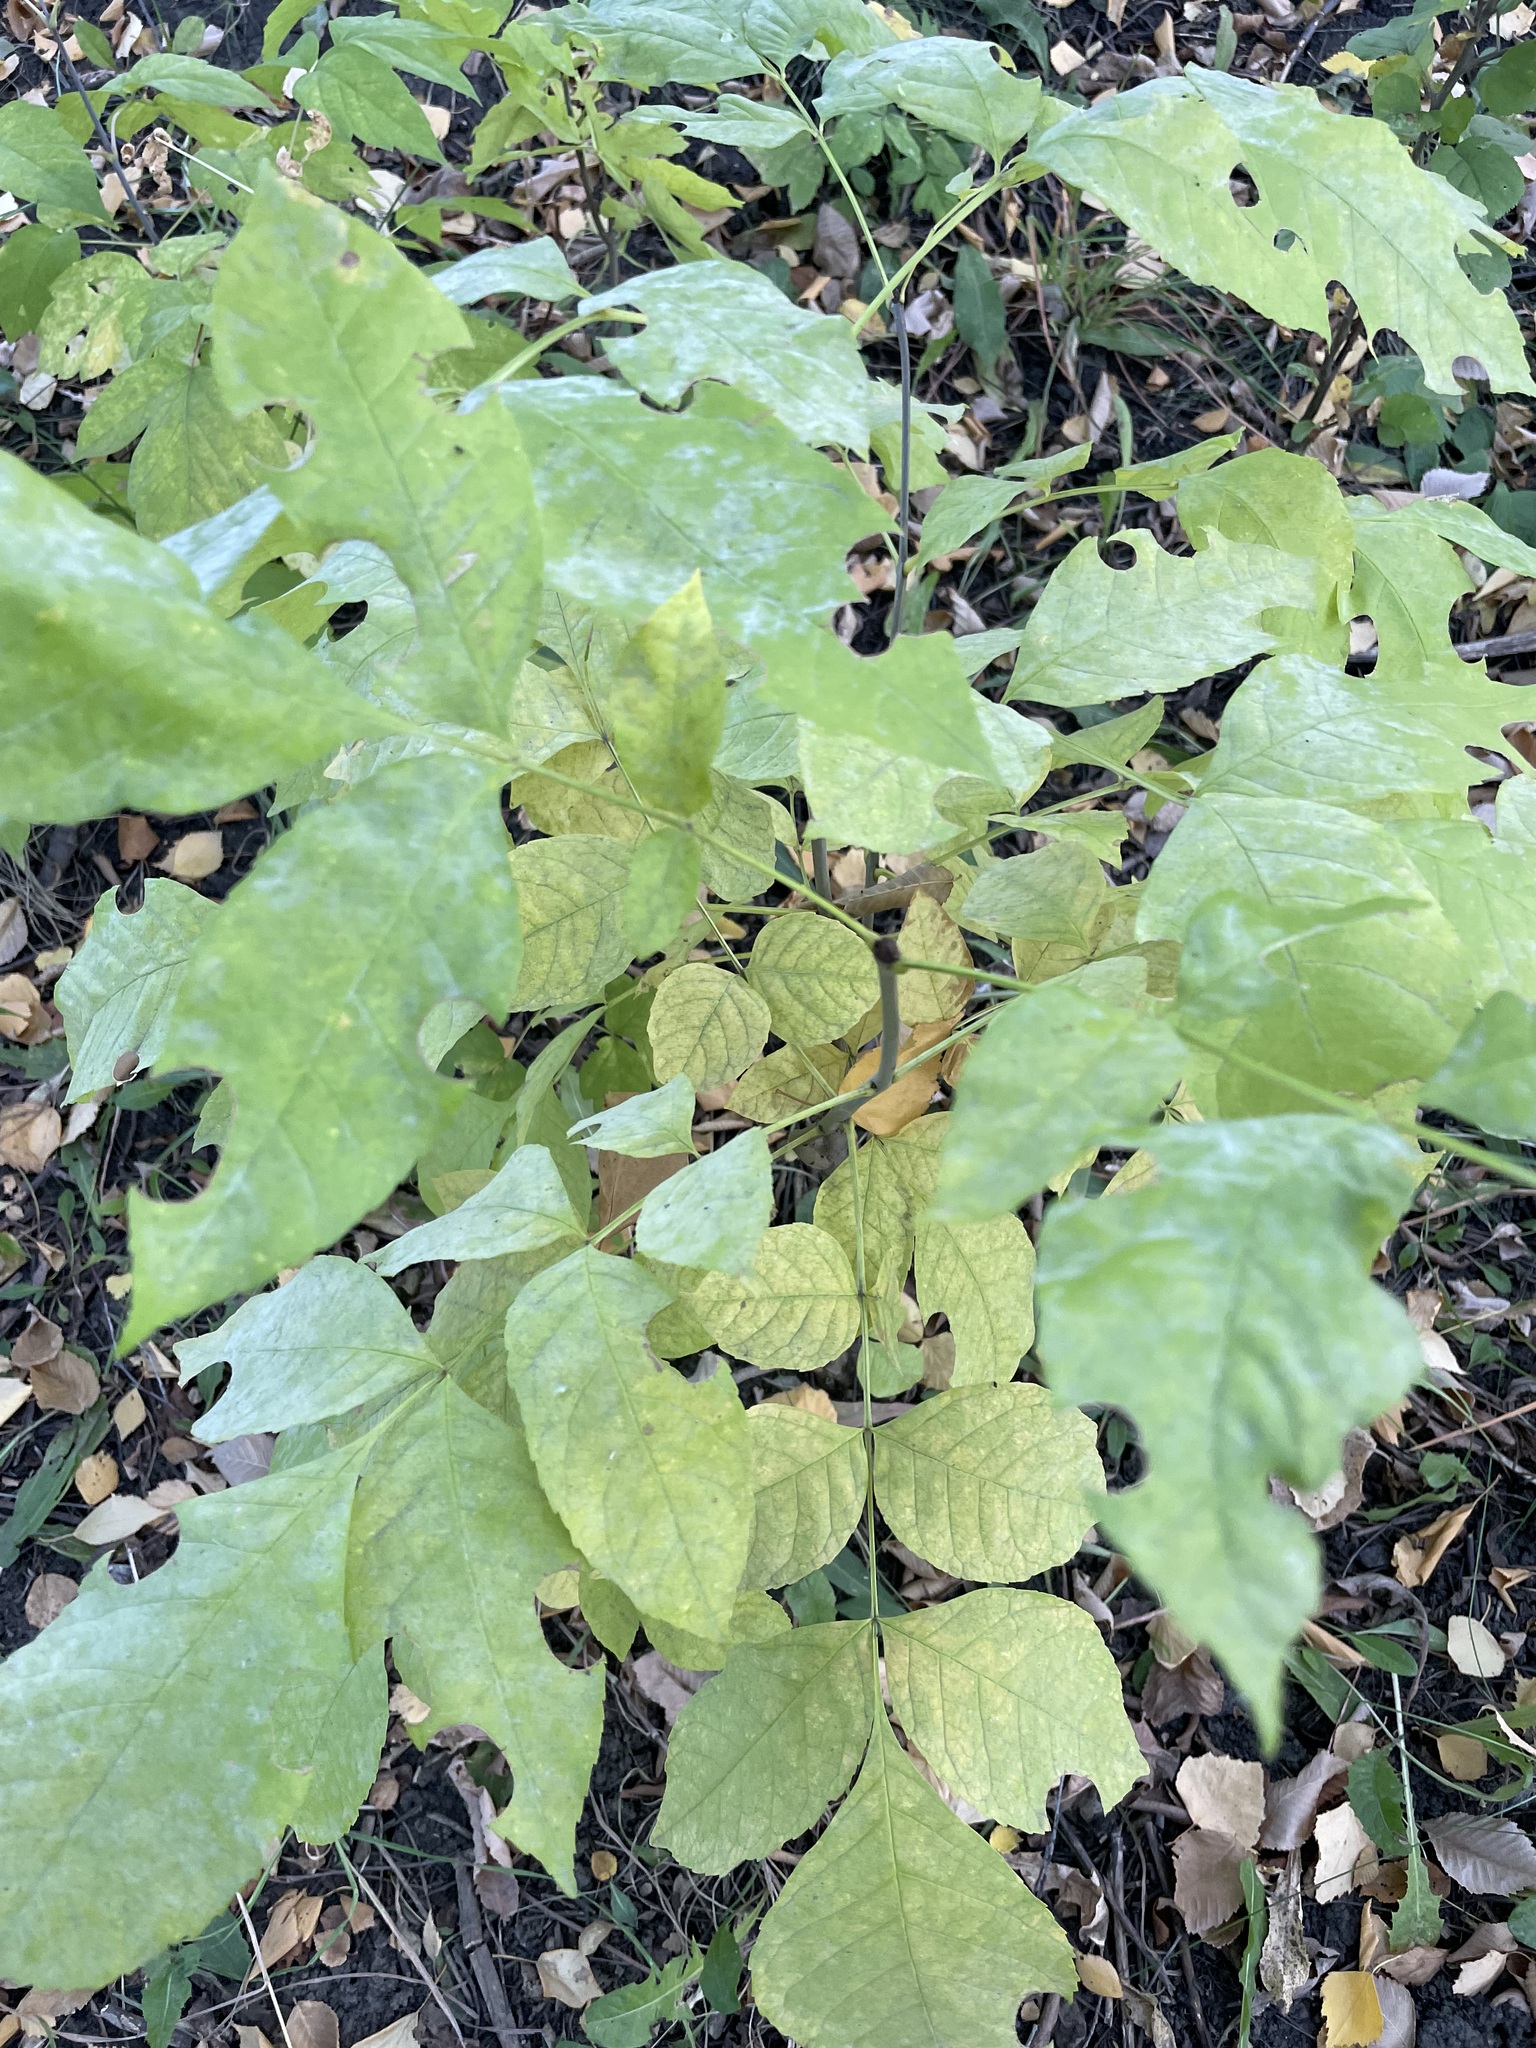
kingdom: Plantae
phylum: Tracheophyta
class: Magnoliopsida
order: Lamiales
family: Oleaceae
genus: Fraxinus
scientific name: Fraxinus pennsylvanica
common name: Green ash
